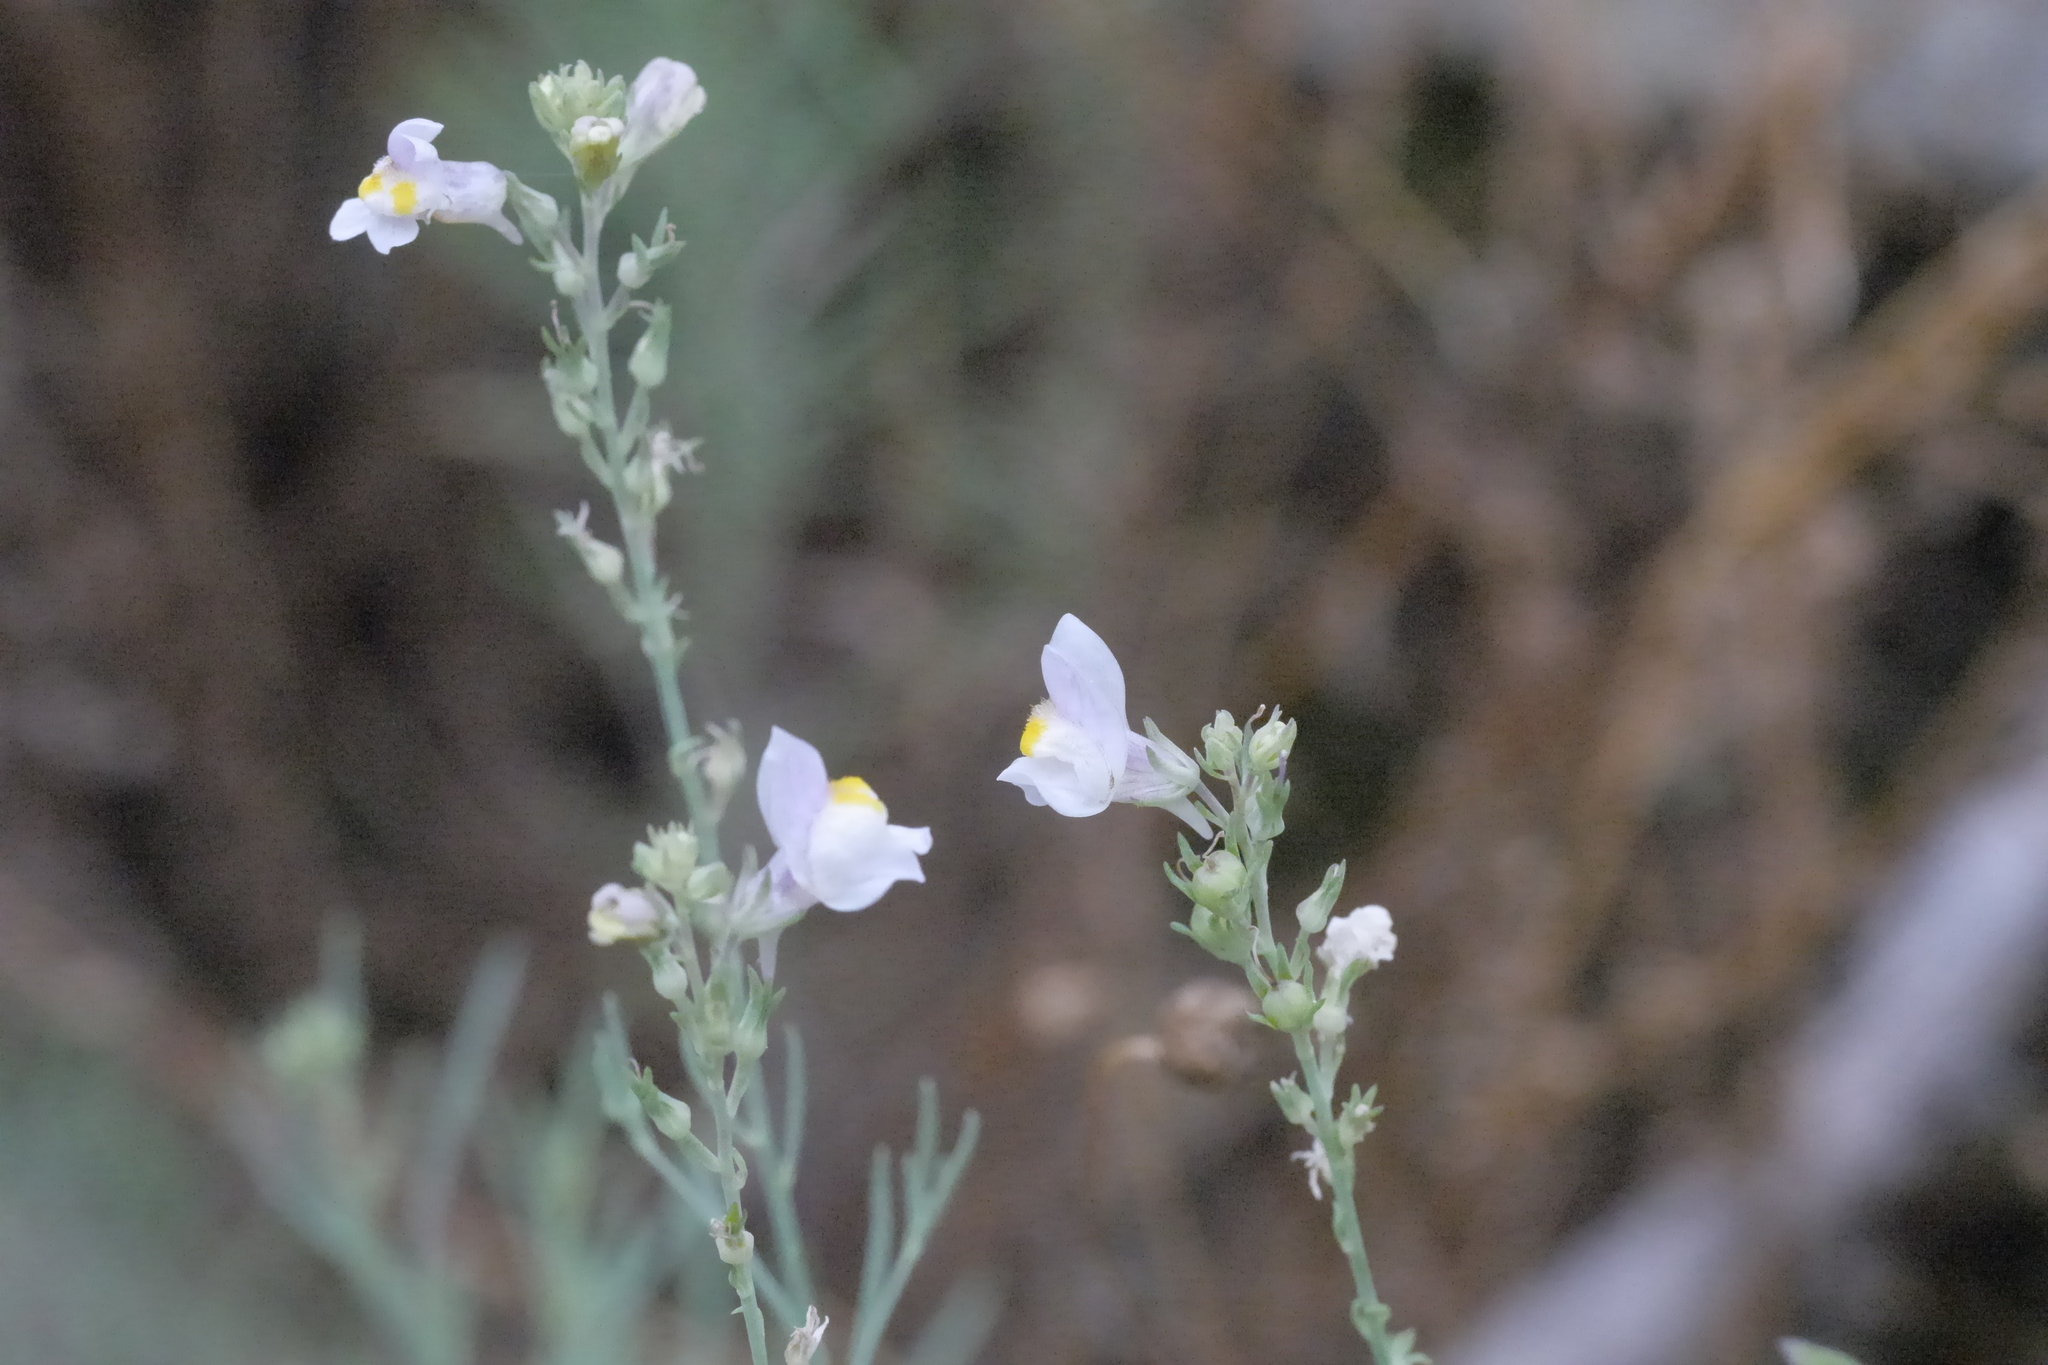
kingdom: Plantae
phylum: Tracheophyta
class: Magnoliopsida
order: Lamiales
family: Plantaginaceae
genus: Linaria
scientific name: Linaria repens
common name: Pale toadflax
